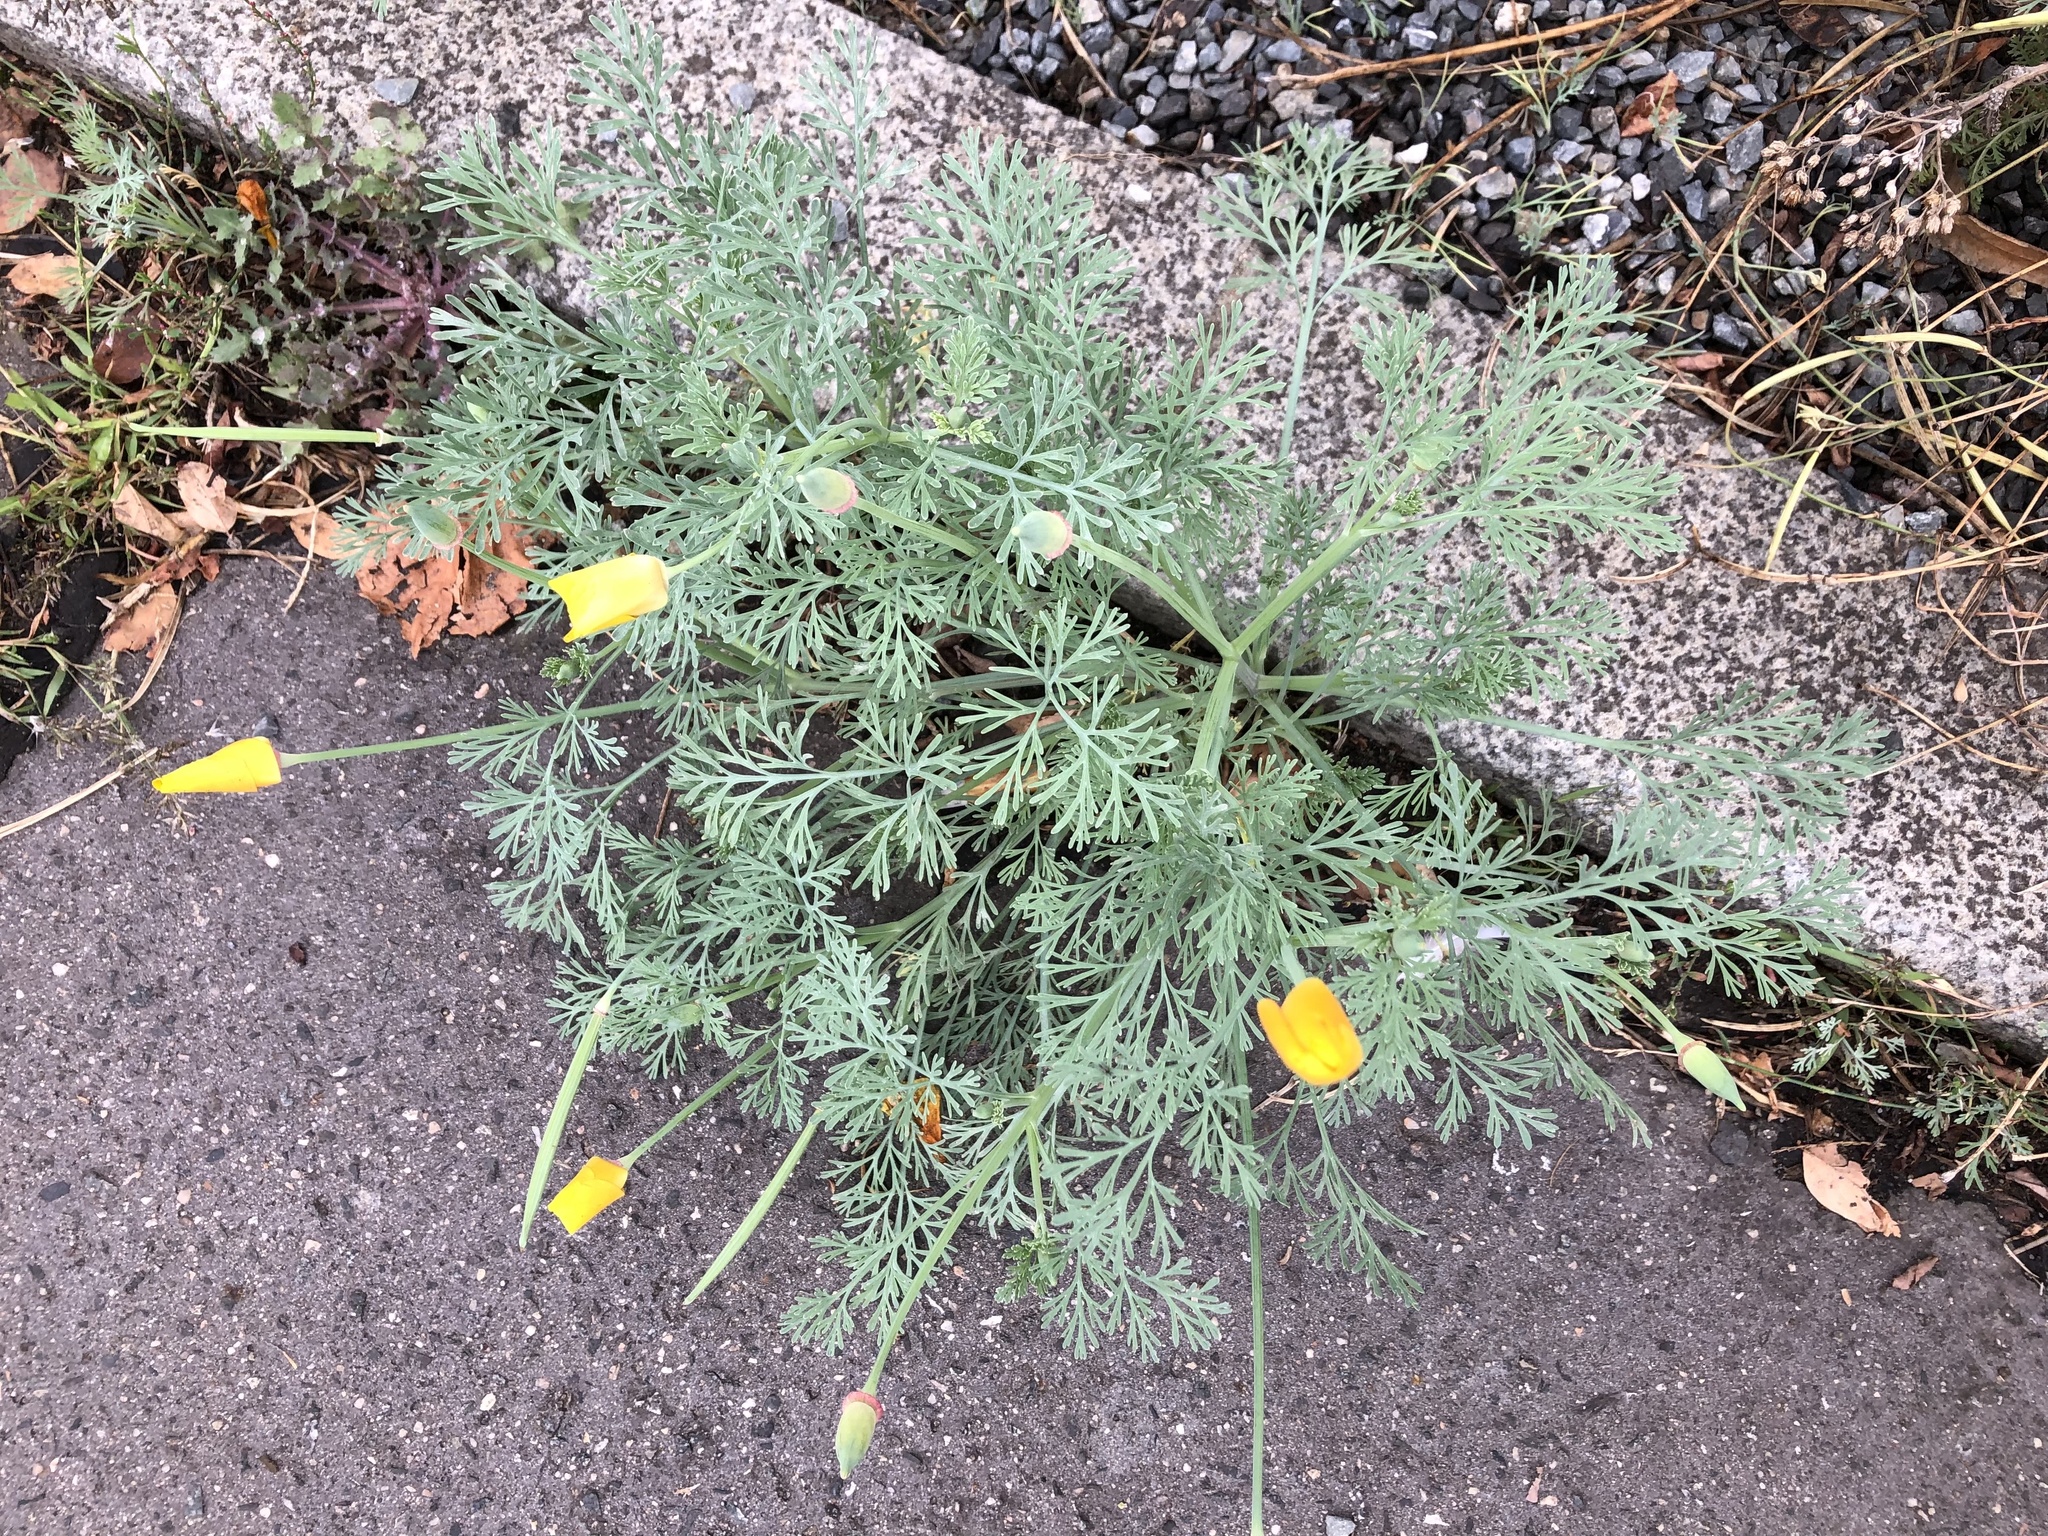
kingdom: Plantae
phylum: Tracheophyta
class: Magnoliopsida
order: Ranunculales
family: Papaveraceae
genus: Eschscholzia
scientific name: Eschscholzia californica
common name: California poppy
